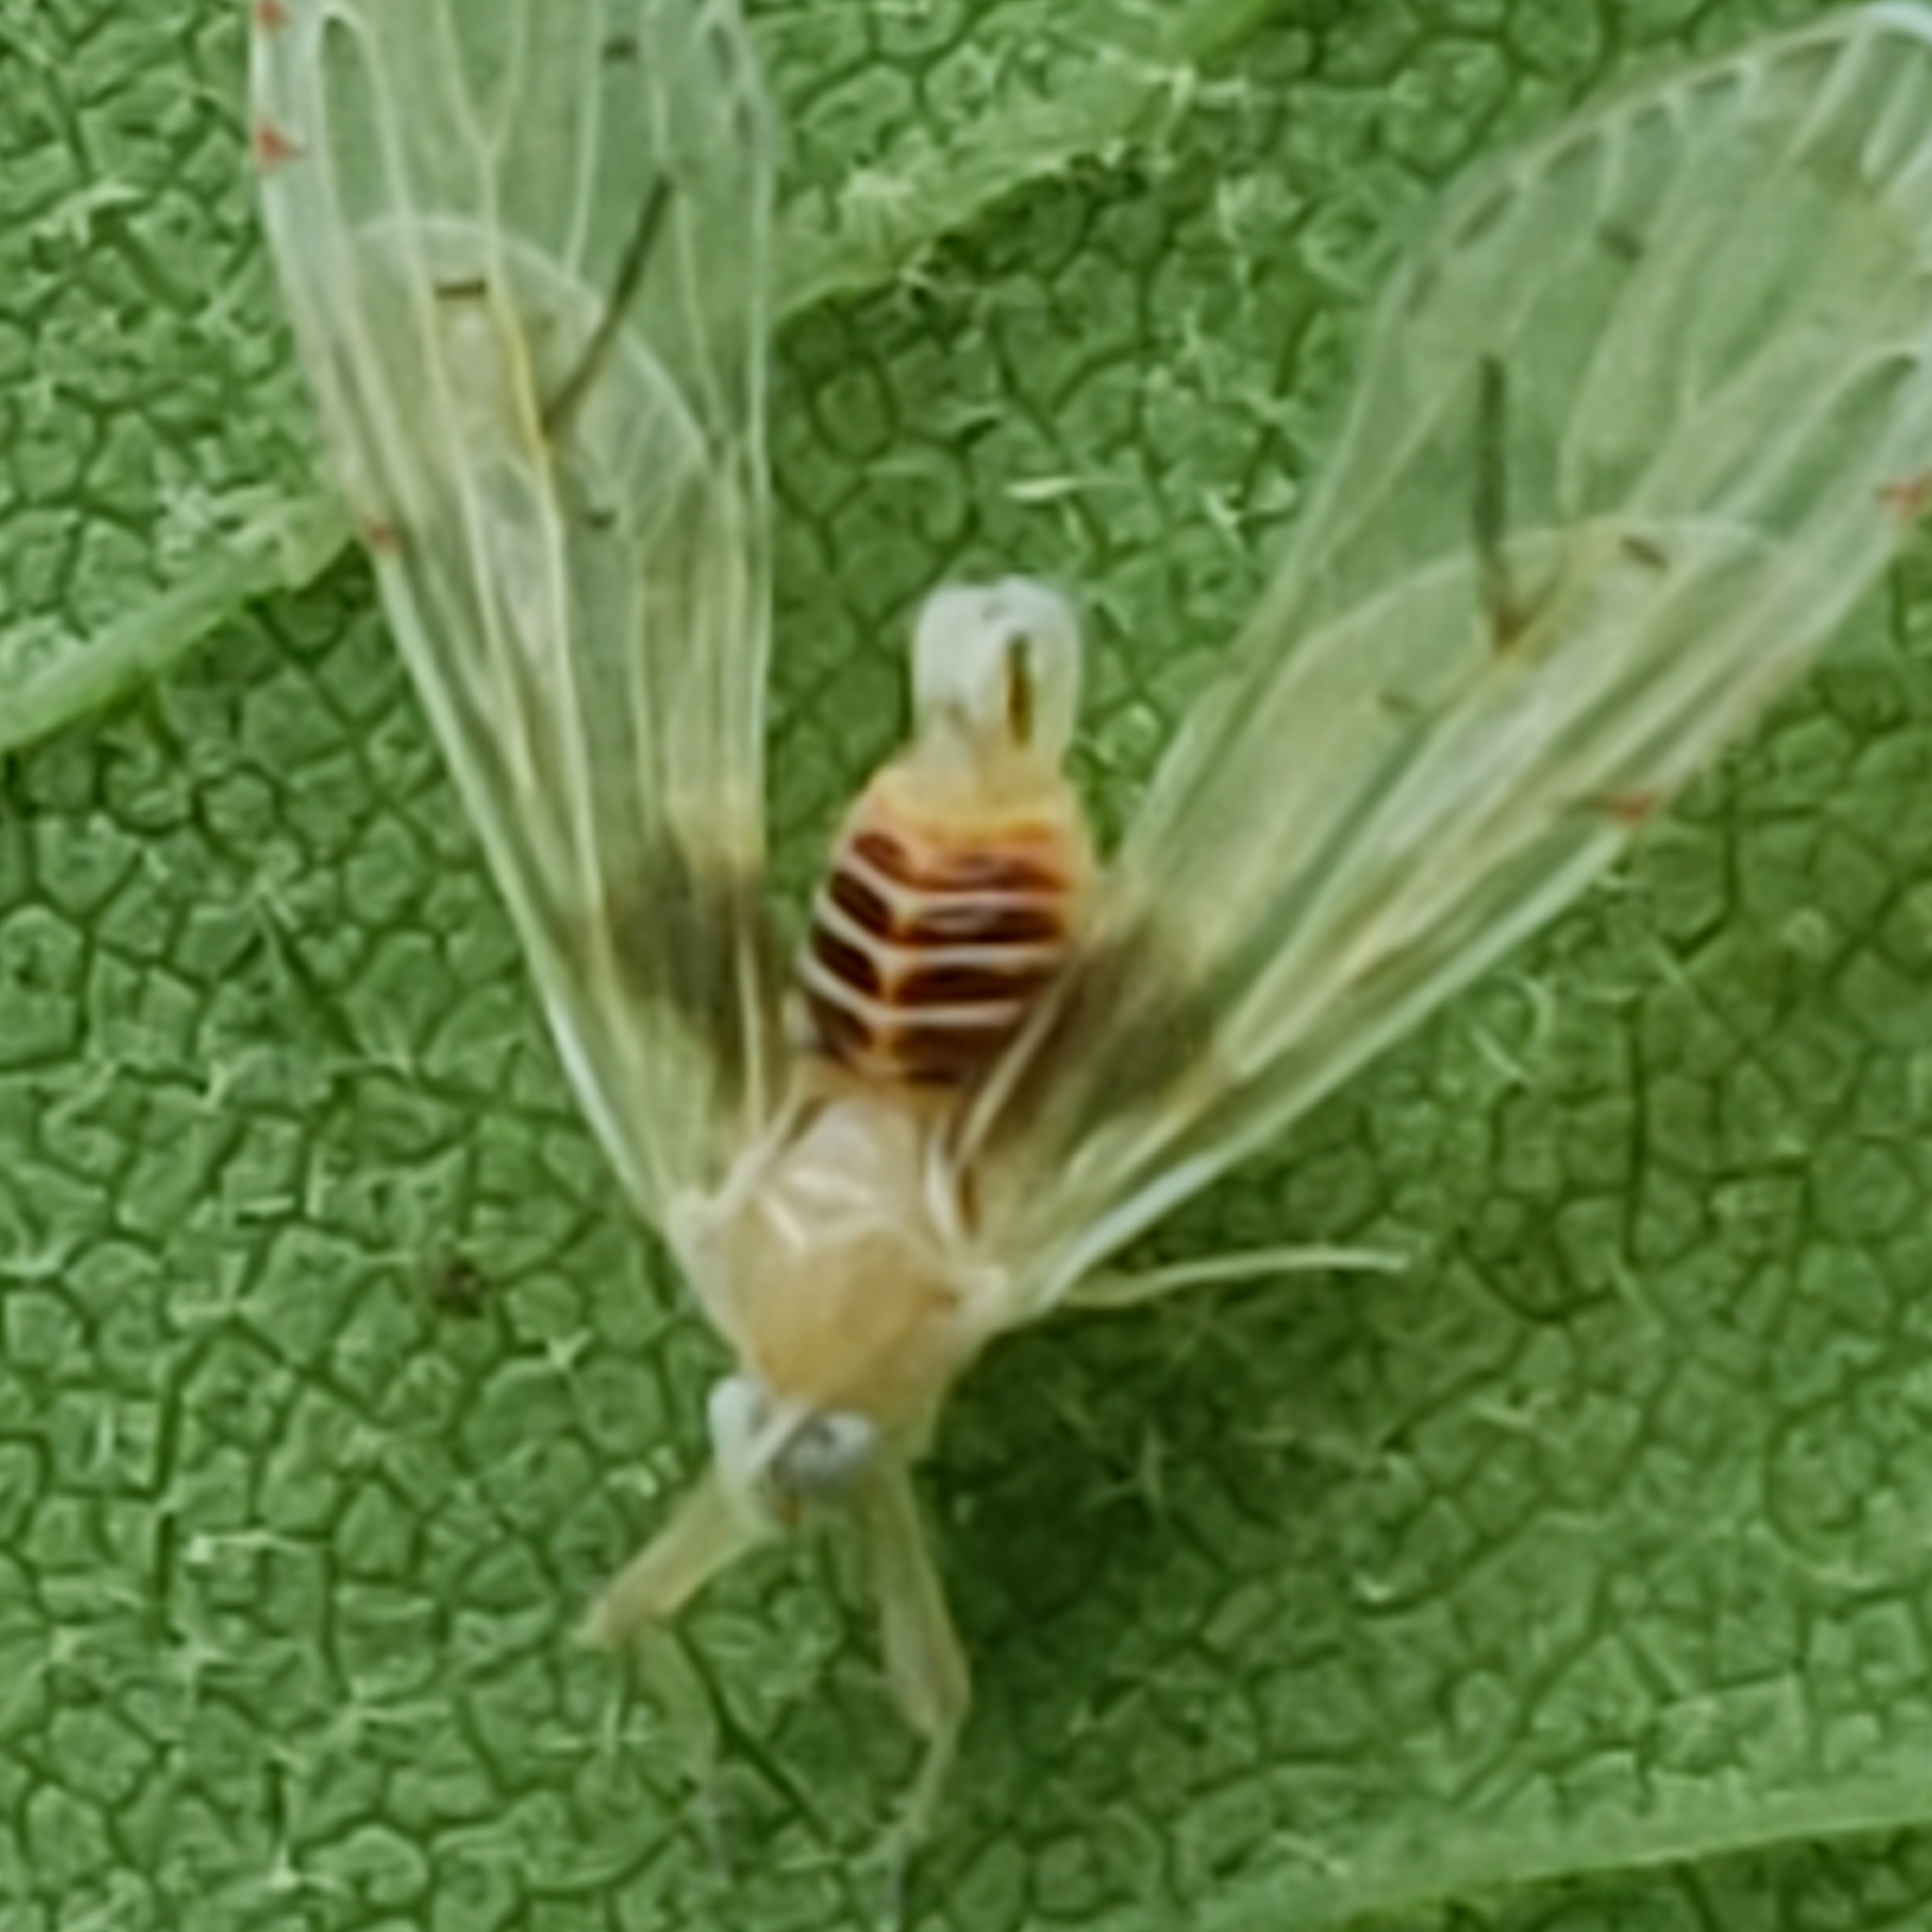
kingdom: Animalia
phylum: Arthropoda
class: Insecta
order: Hemiptera
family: Derbidae
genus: Anotia
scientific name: Anotia burnetii
